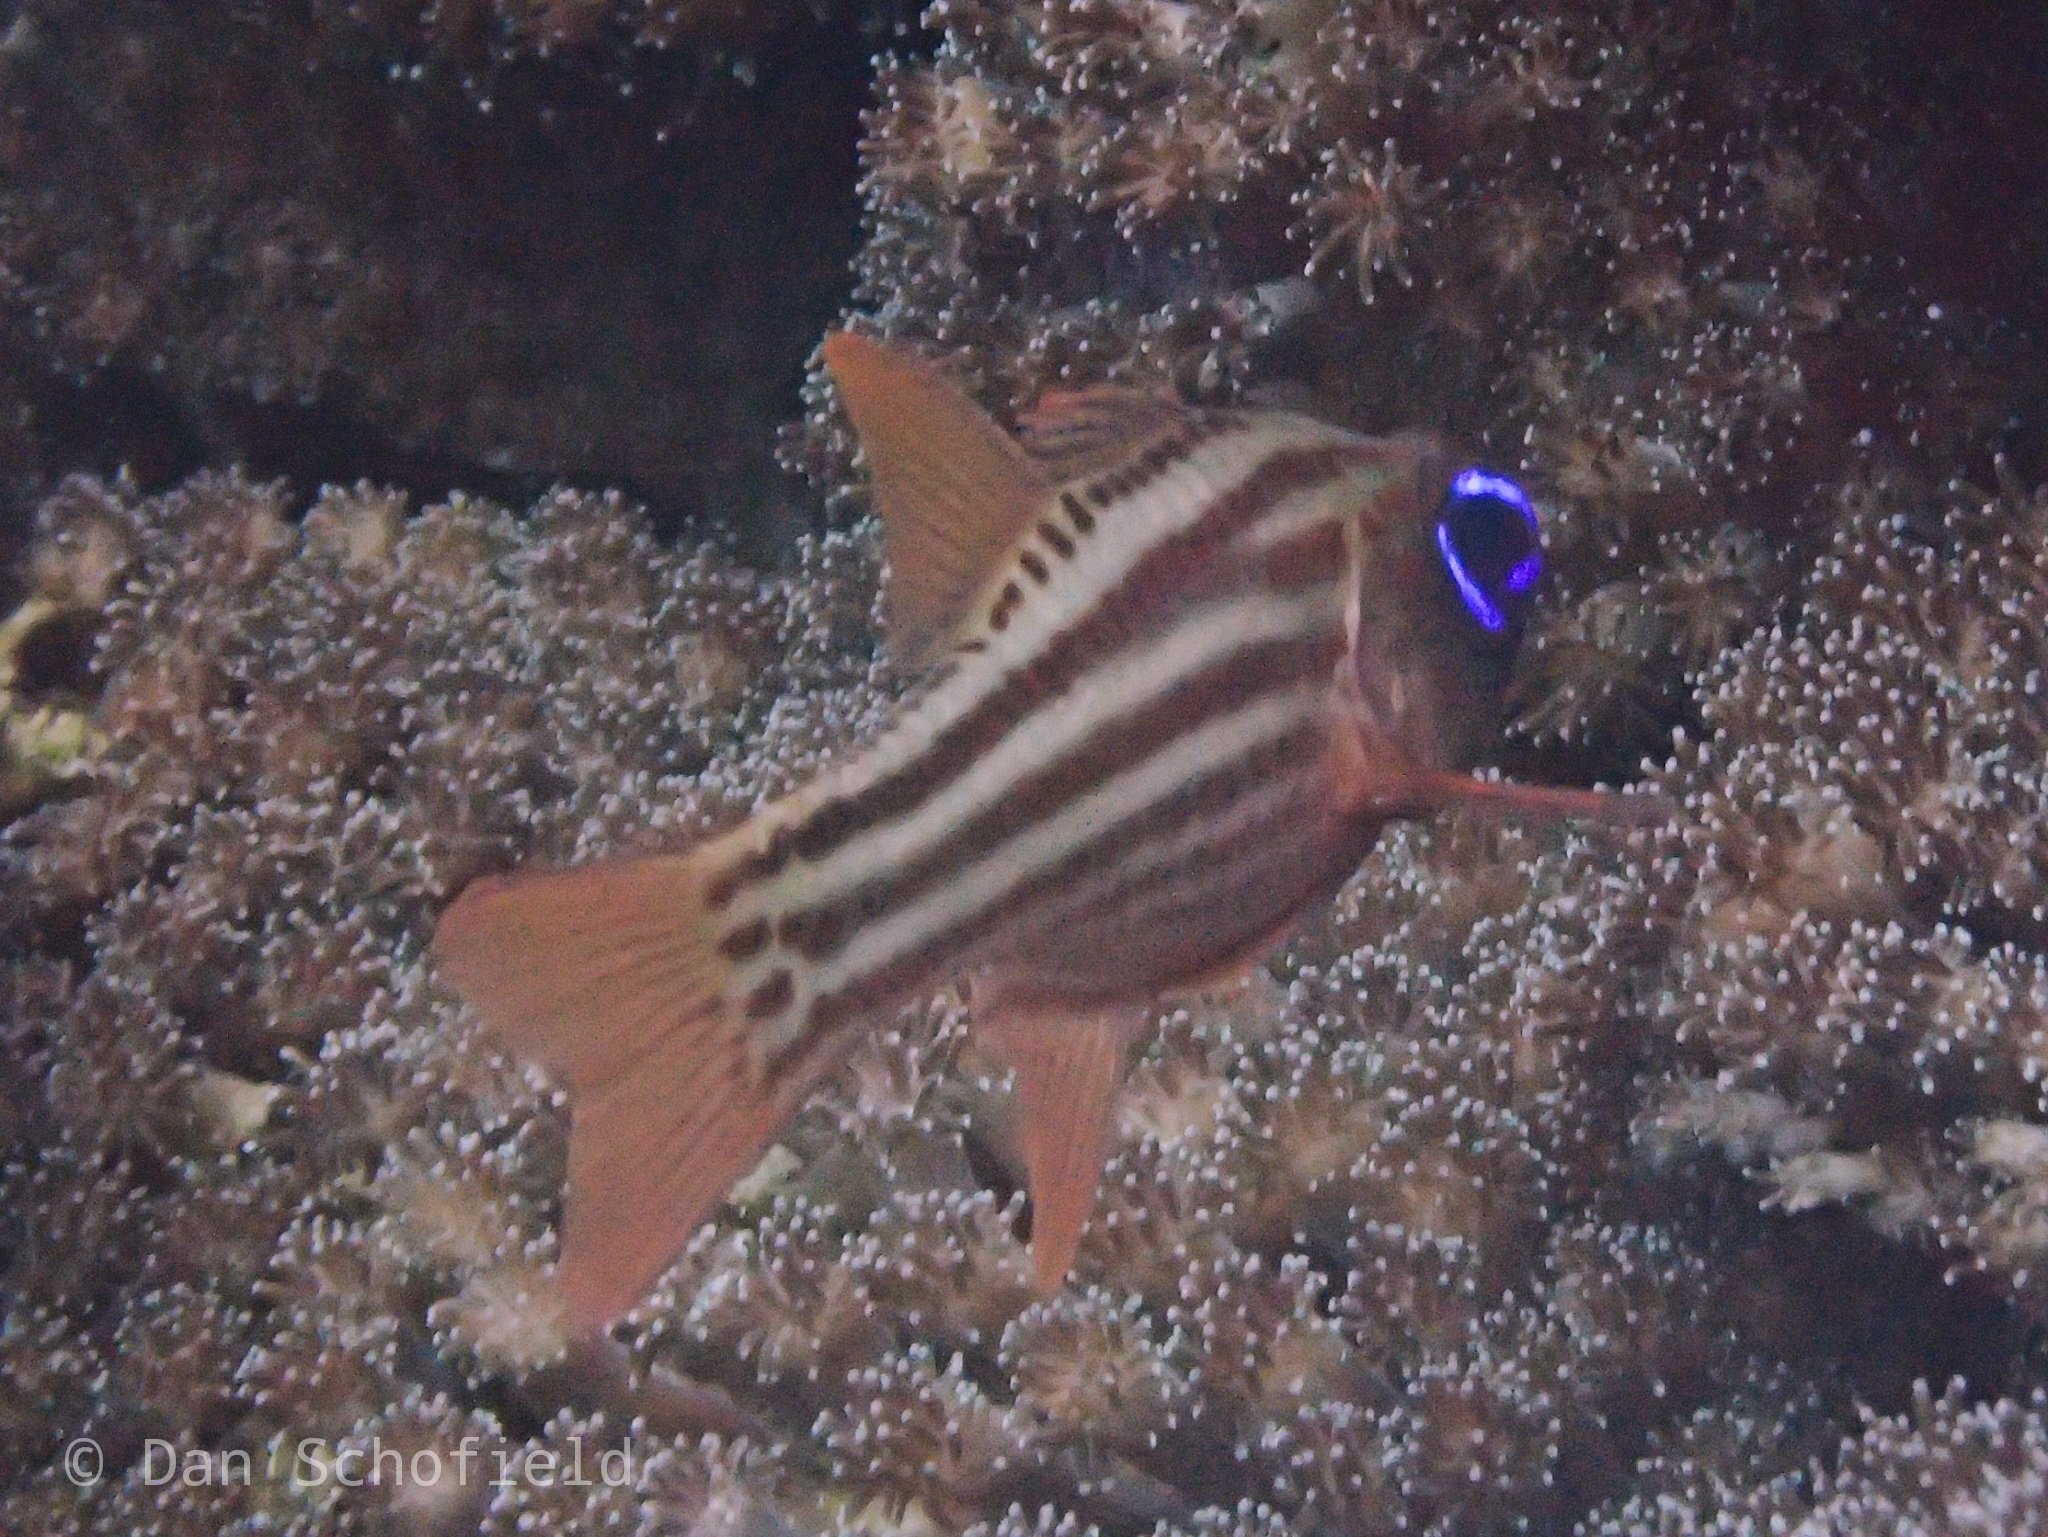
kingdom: Animalia
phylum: Chordata
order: Perciformes
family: Apogonidae
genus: Ostorhinchus
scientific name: Ostorhinchus compressus
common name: Ochre-striped cardinalfish
